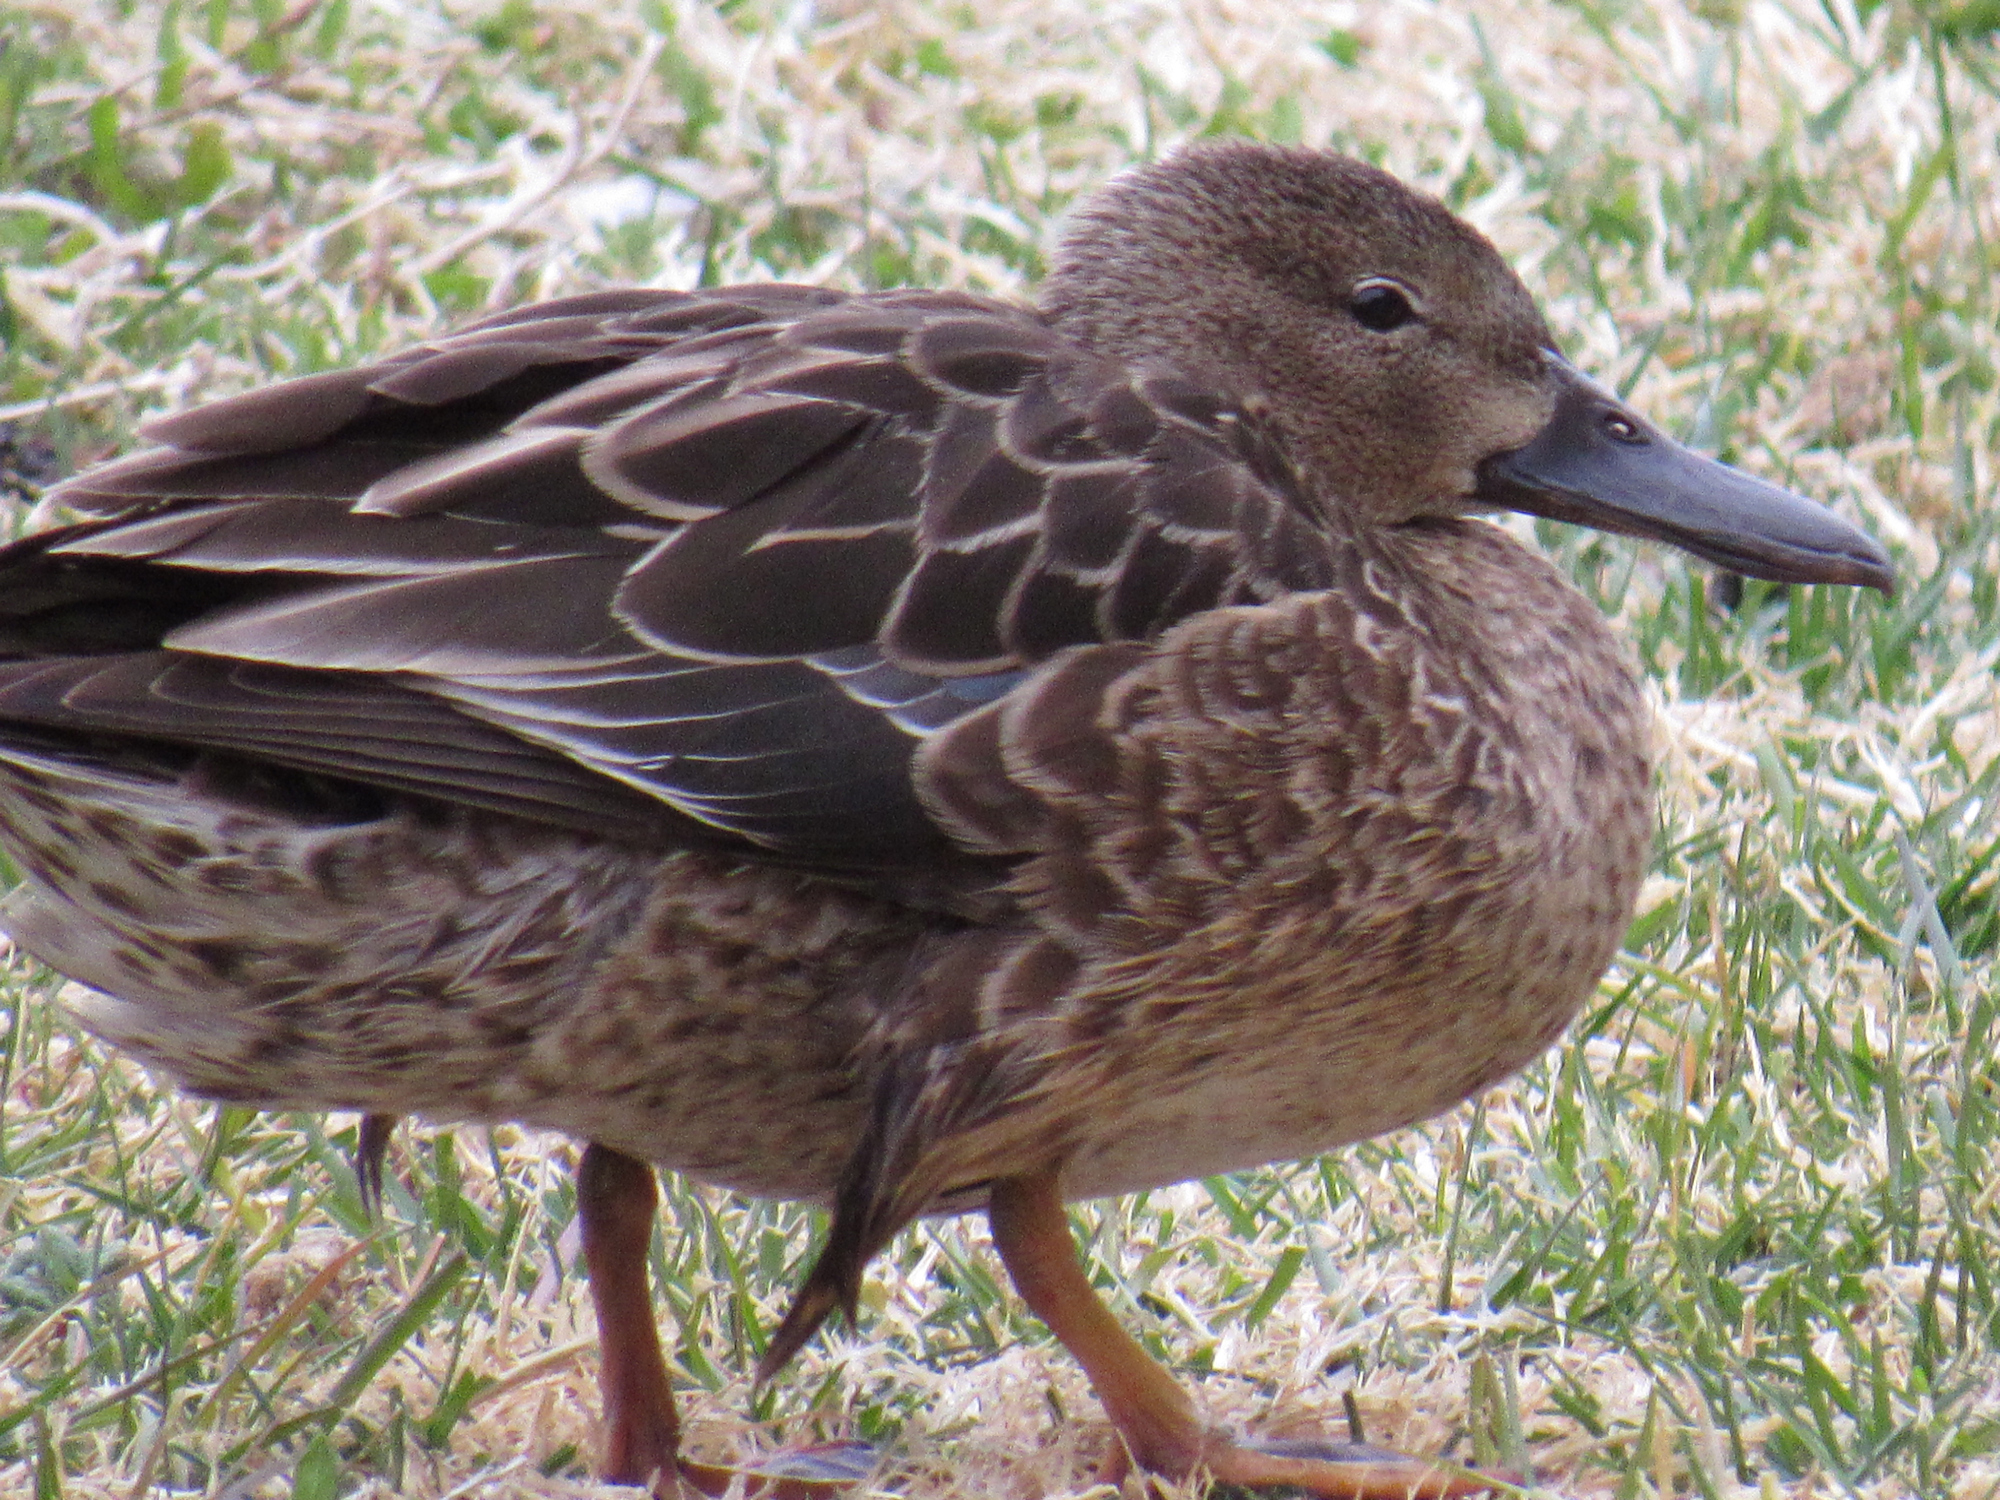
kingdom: Animalia
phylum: Chordata
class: Aves
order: Anseriformes
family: Anatidae
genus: Spatula
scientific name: Spatula cyanoptera
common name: Cinnamon teal
